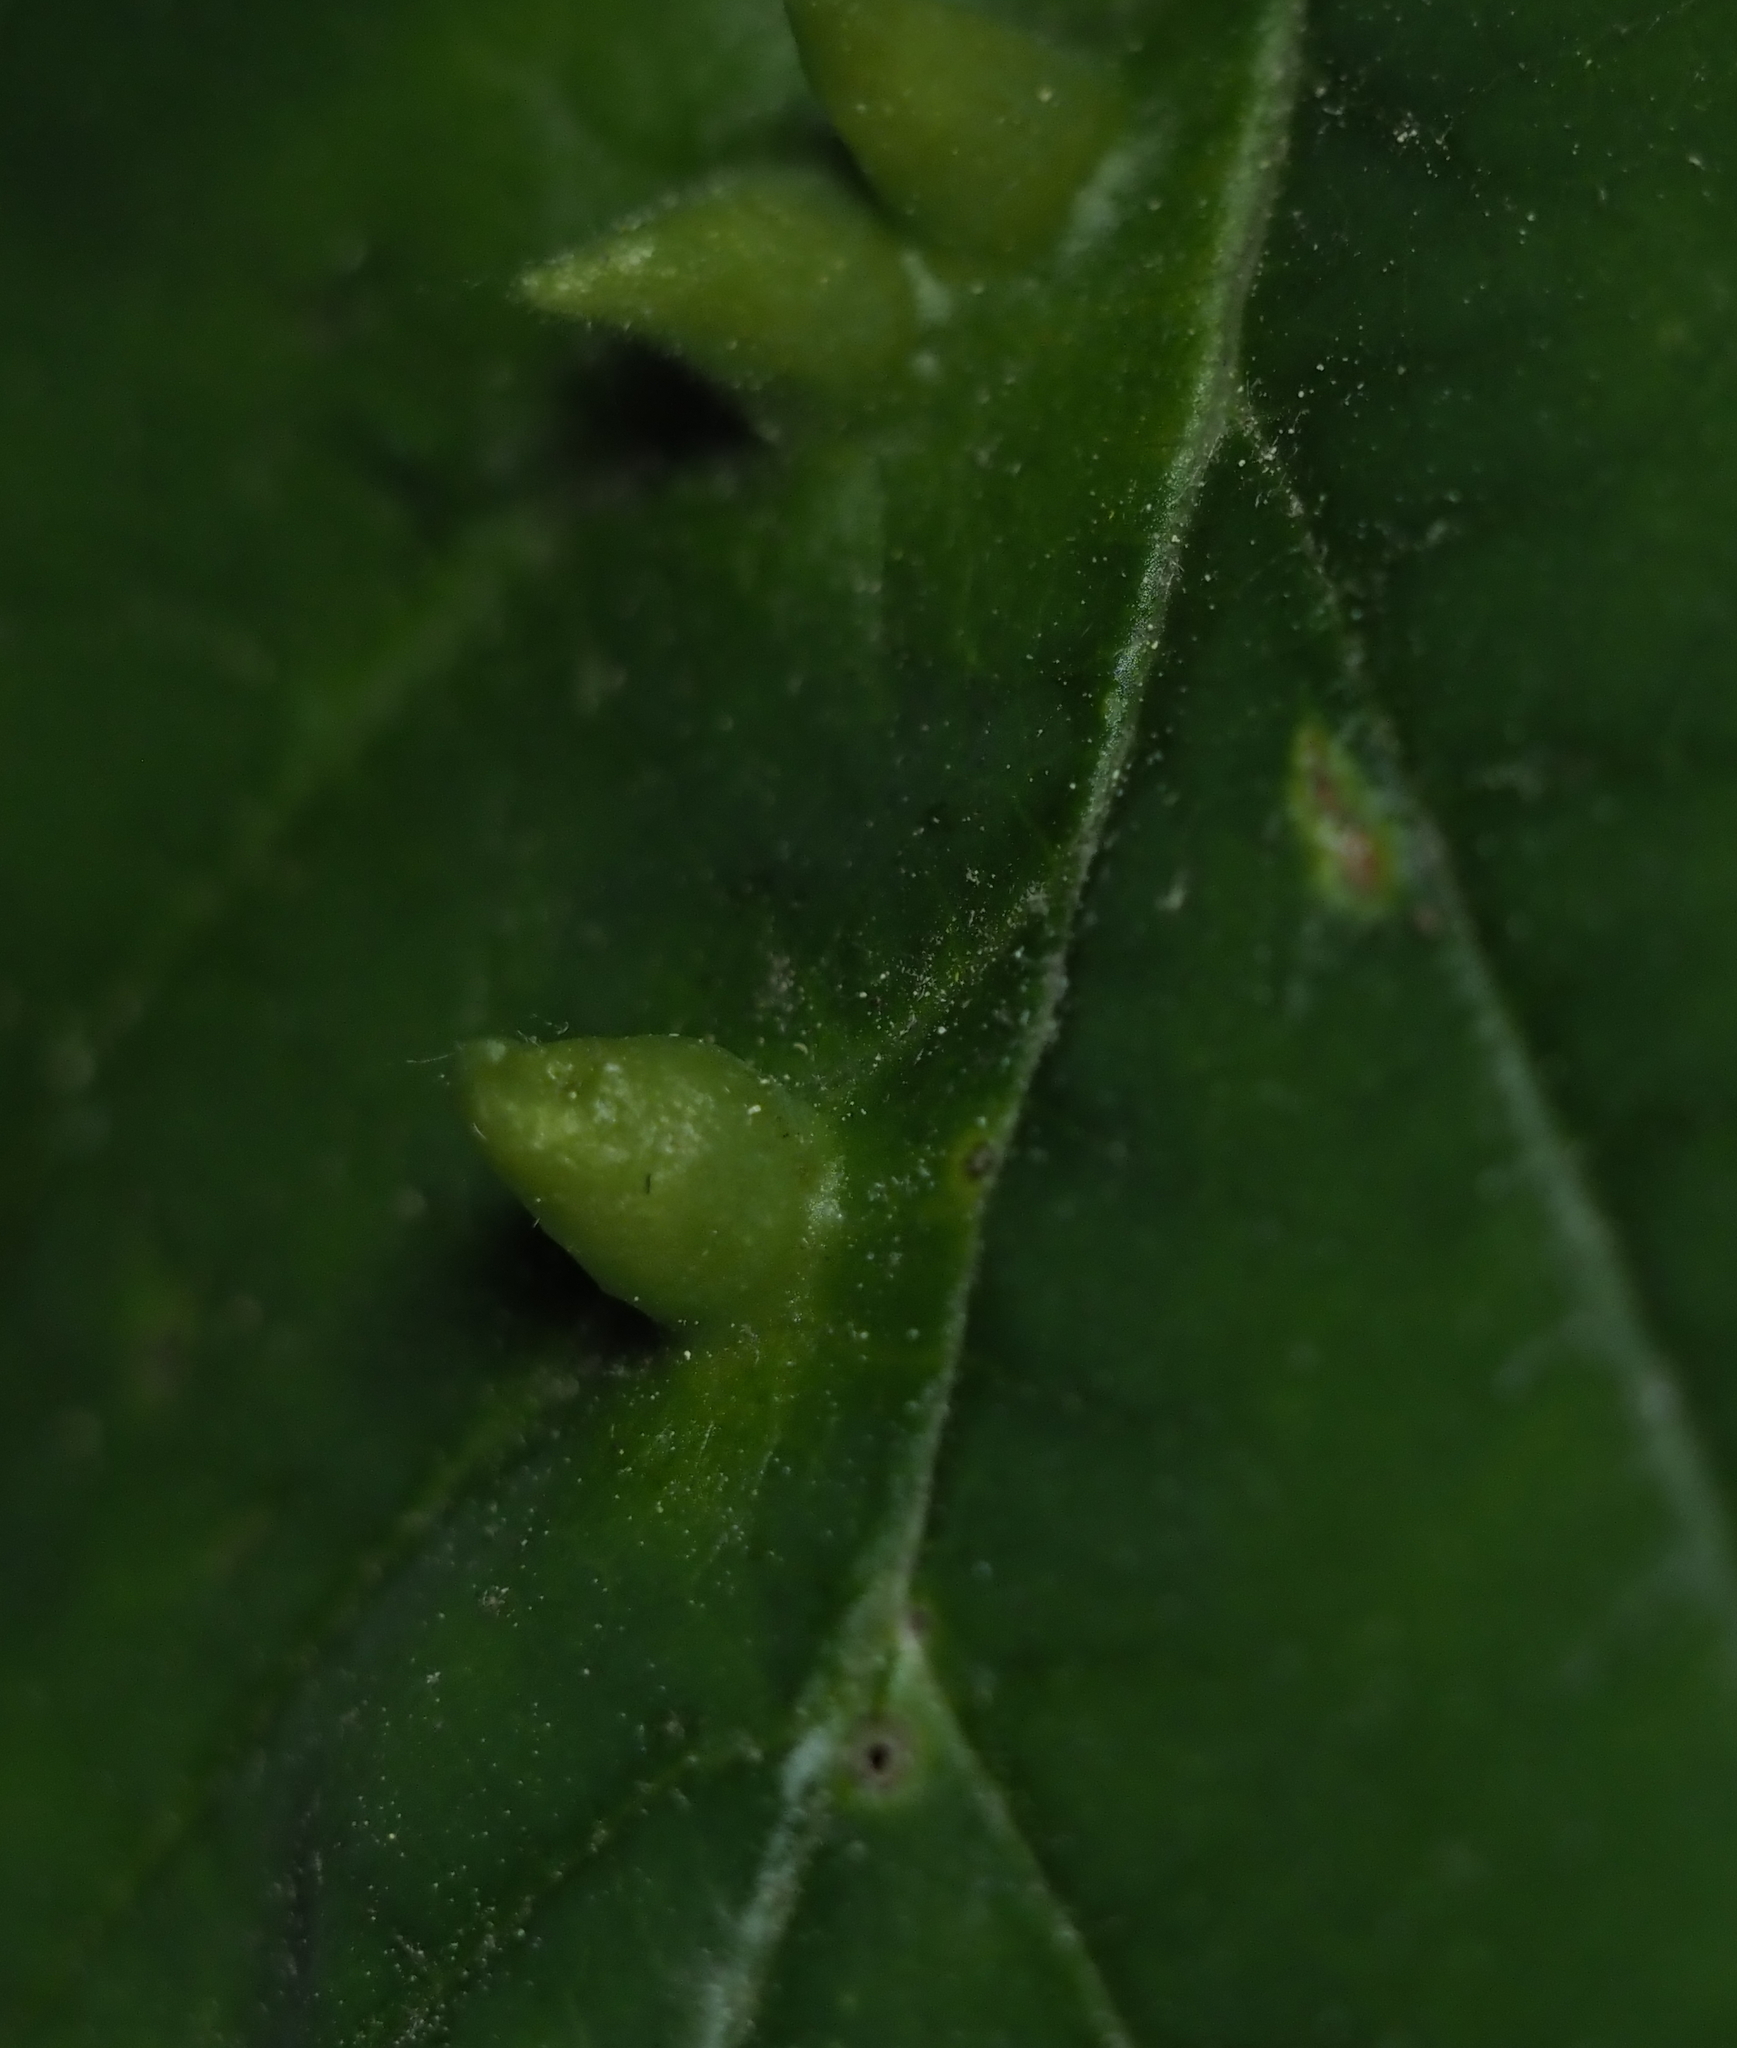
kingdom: Animalia
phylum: Arthropoda
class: Insecta
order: Hemiptera
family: Aphididae
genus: Hormaphis
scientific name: Hormaphis hamamelidis
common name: Witch-hazel cone gall aphid
